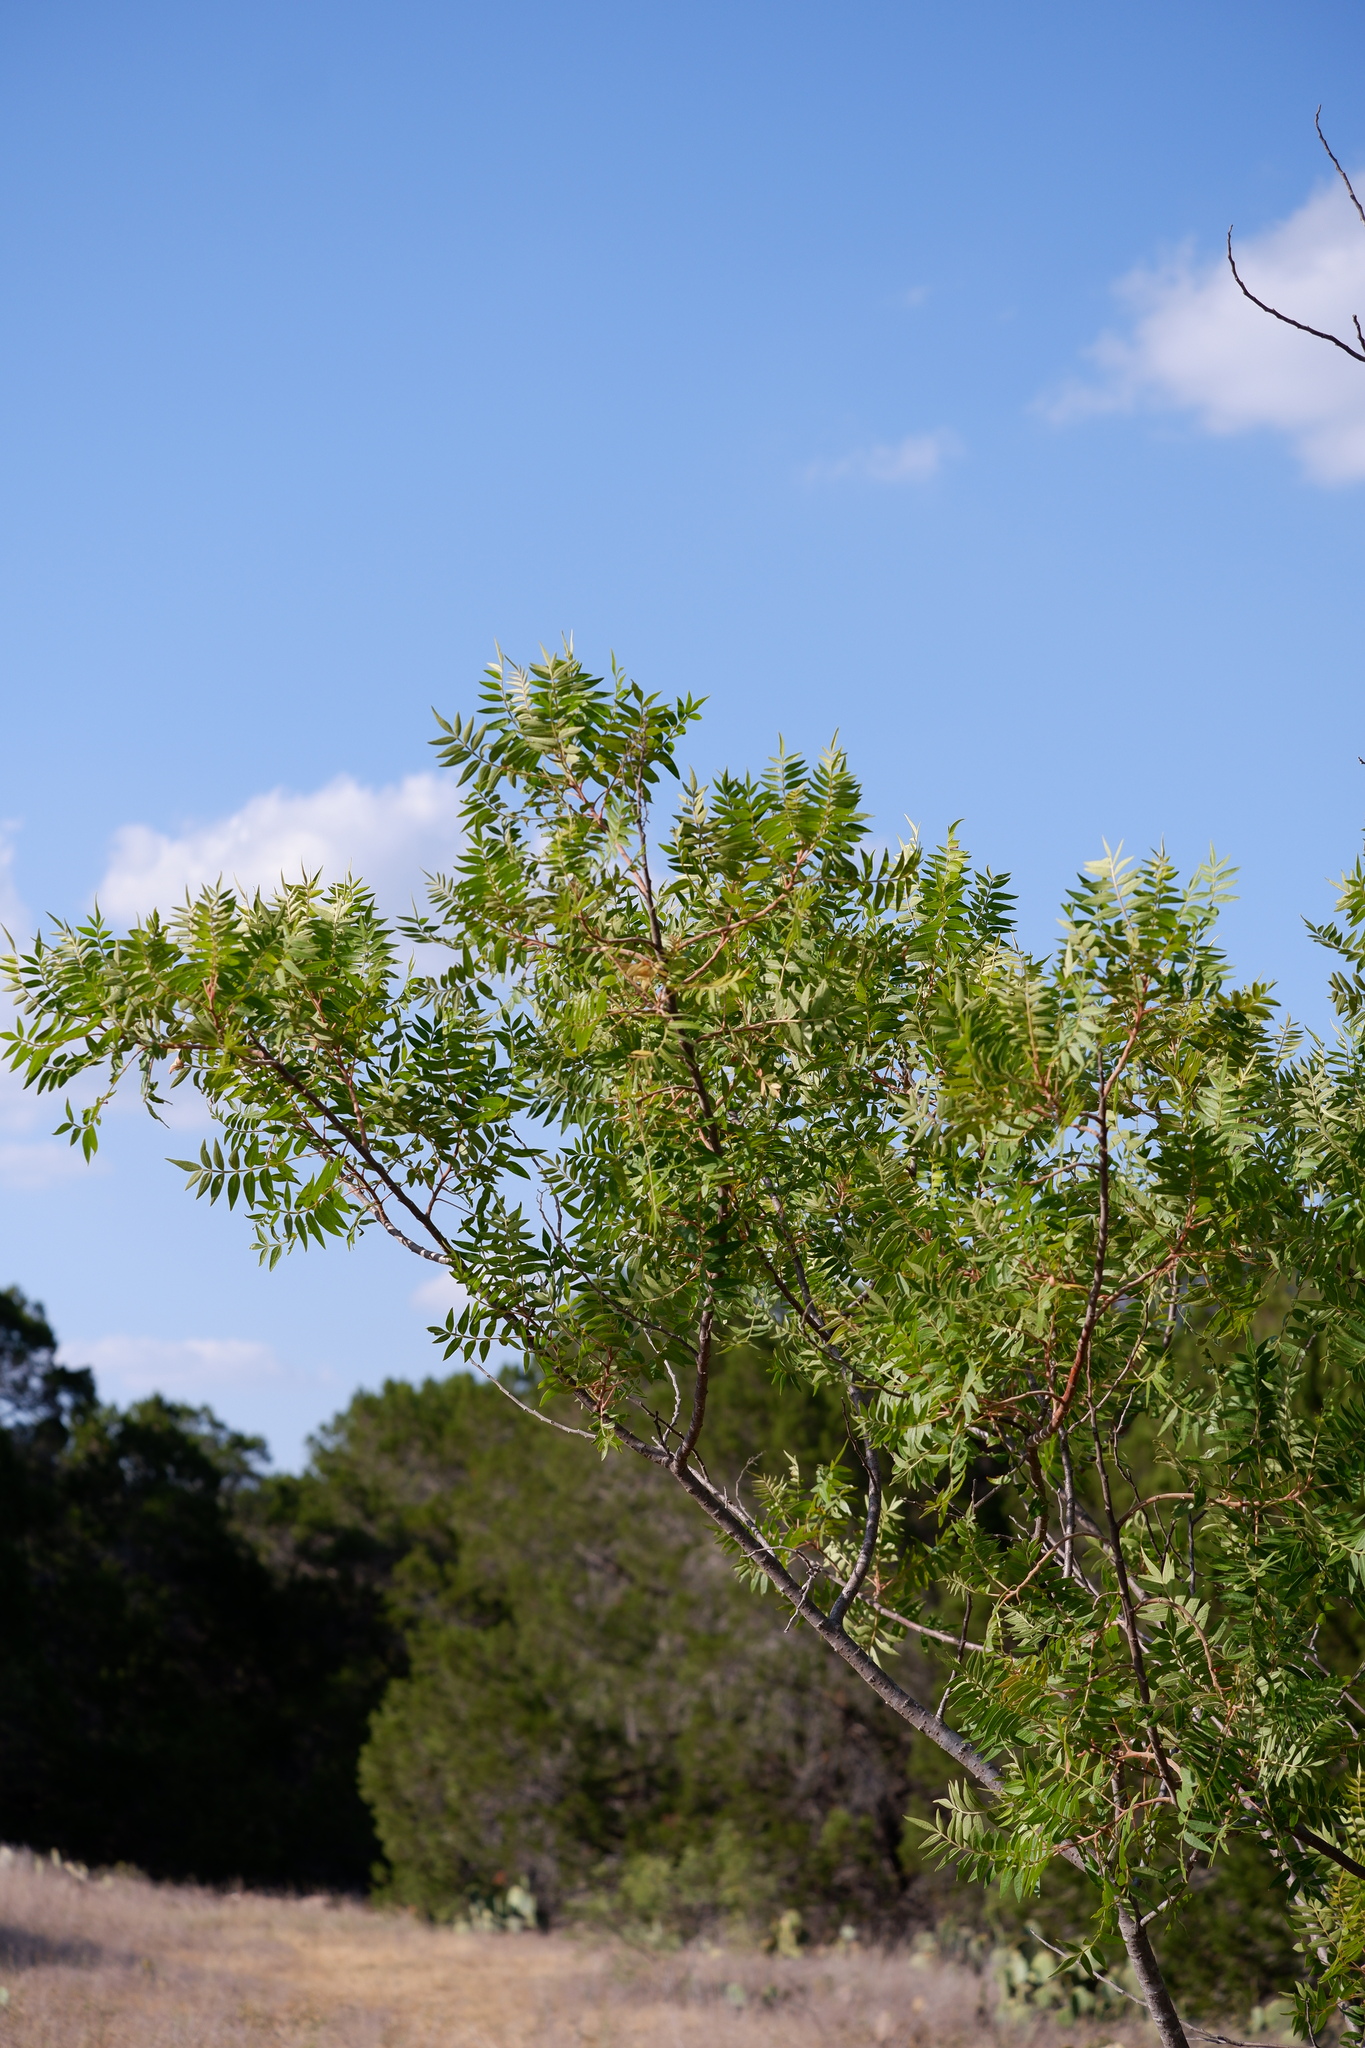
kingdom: Plantae
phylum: Tracheophyta
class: Magnoliopsida
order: Sapindales
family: Anacardiaceae
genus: Rhus
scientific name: Rhus lanceolata
